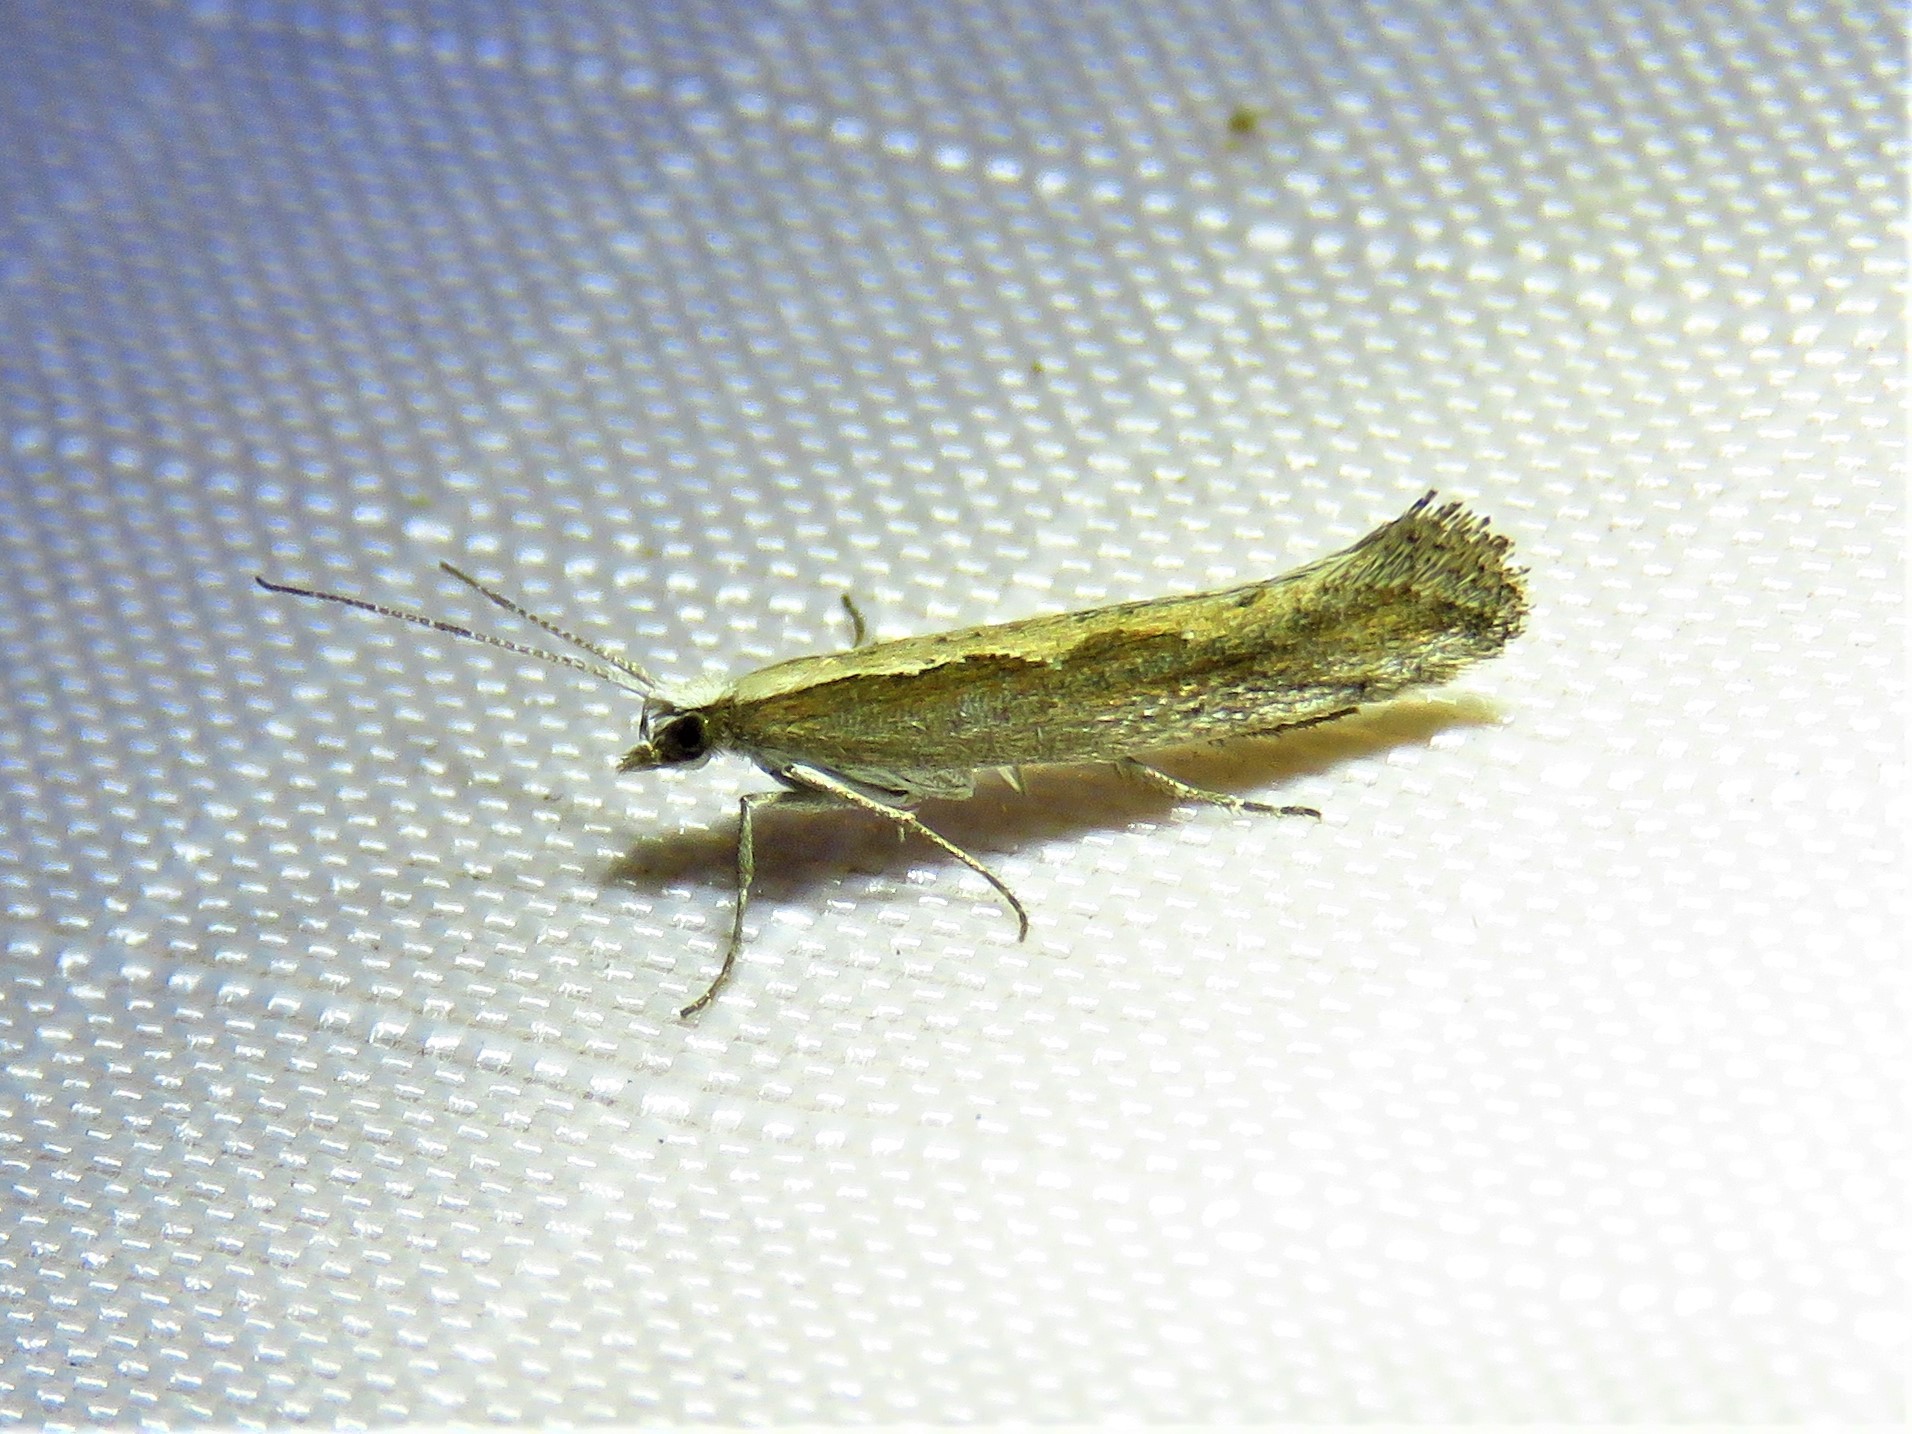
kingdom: Animalia
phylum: Arthropoda
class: Insecta
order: Lepidoptera
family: Plutellidae
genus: Plutella
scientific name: Plutella xylostella
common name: Diamond-back moth
